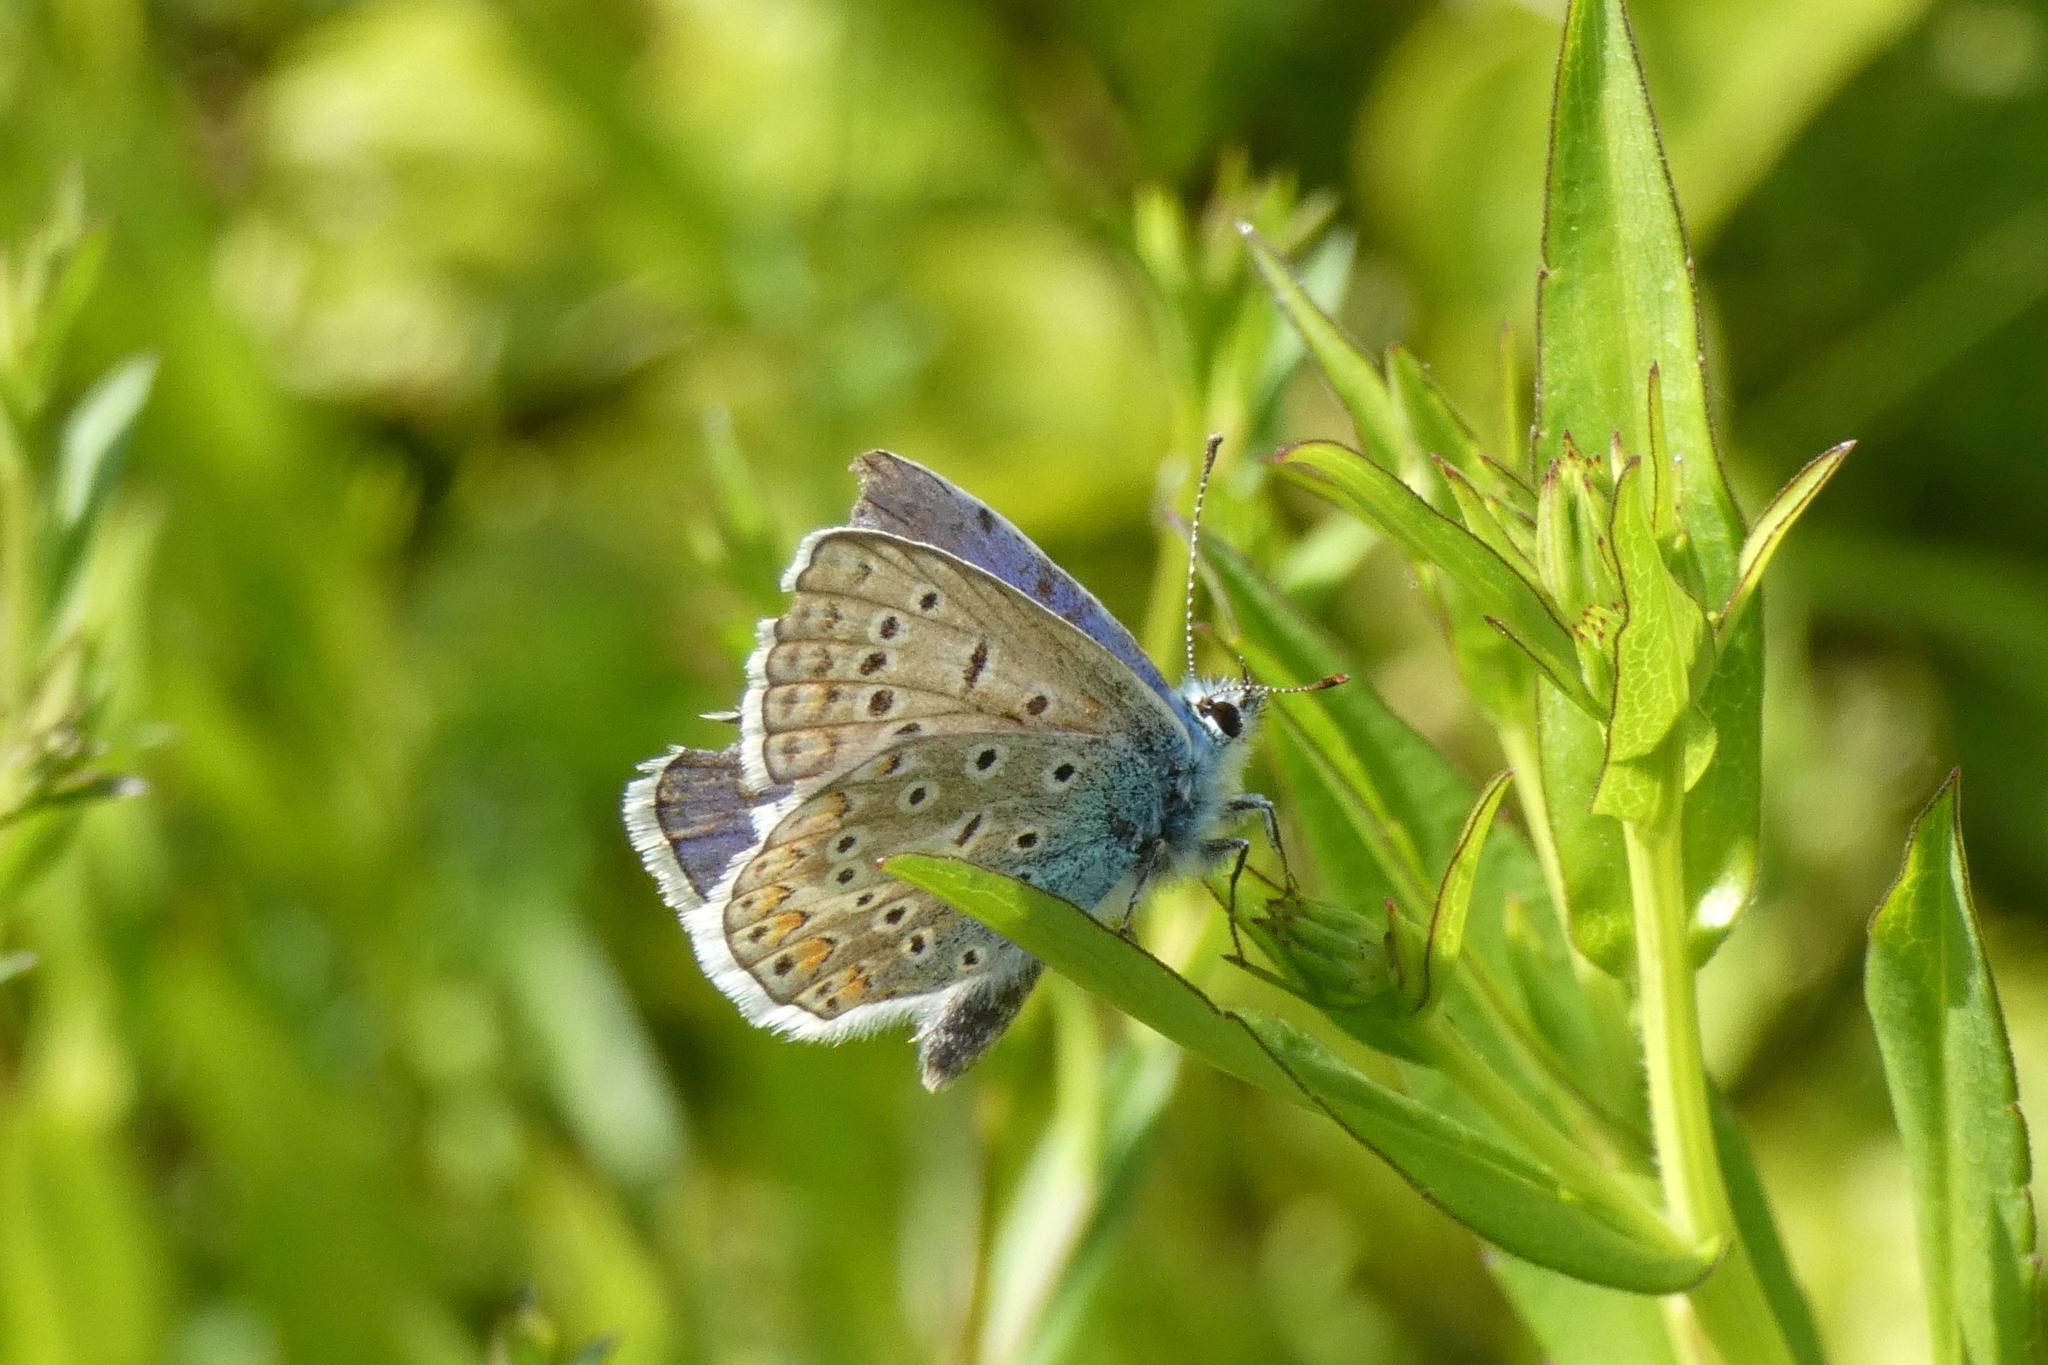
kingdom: Animalia
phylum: Arthropoda
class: Insecta
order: Lepidoptera
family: Lycaenidae
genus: Polyommatus
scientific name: Polyommatus icarus
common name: Common blue
